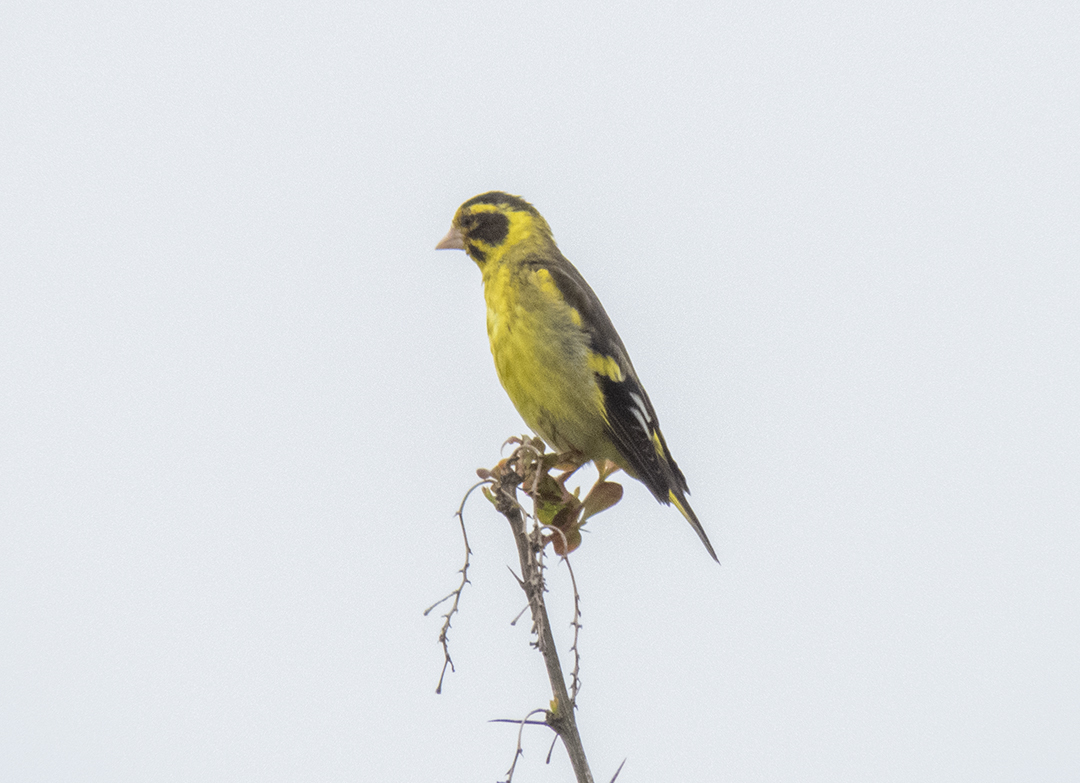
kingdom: Animalia
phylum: Chordata
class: Aves
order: Passeriformes
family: Fringillidae
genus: Chloris
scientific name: Chloris spinoides
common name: Yellow-breasted greenfinch
